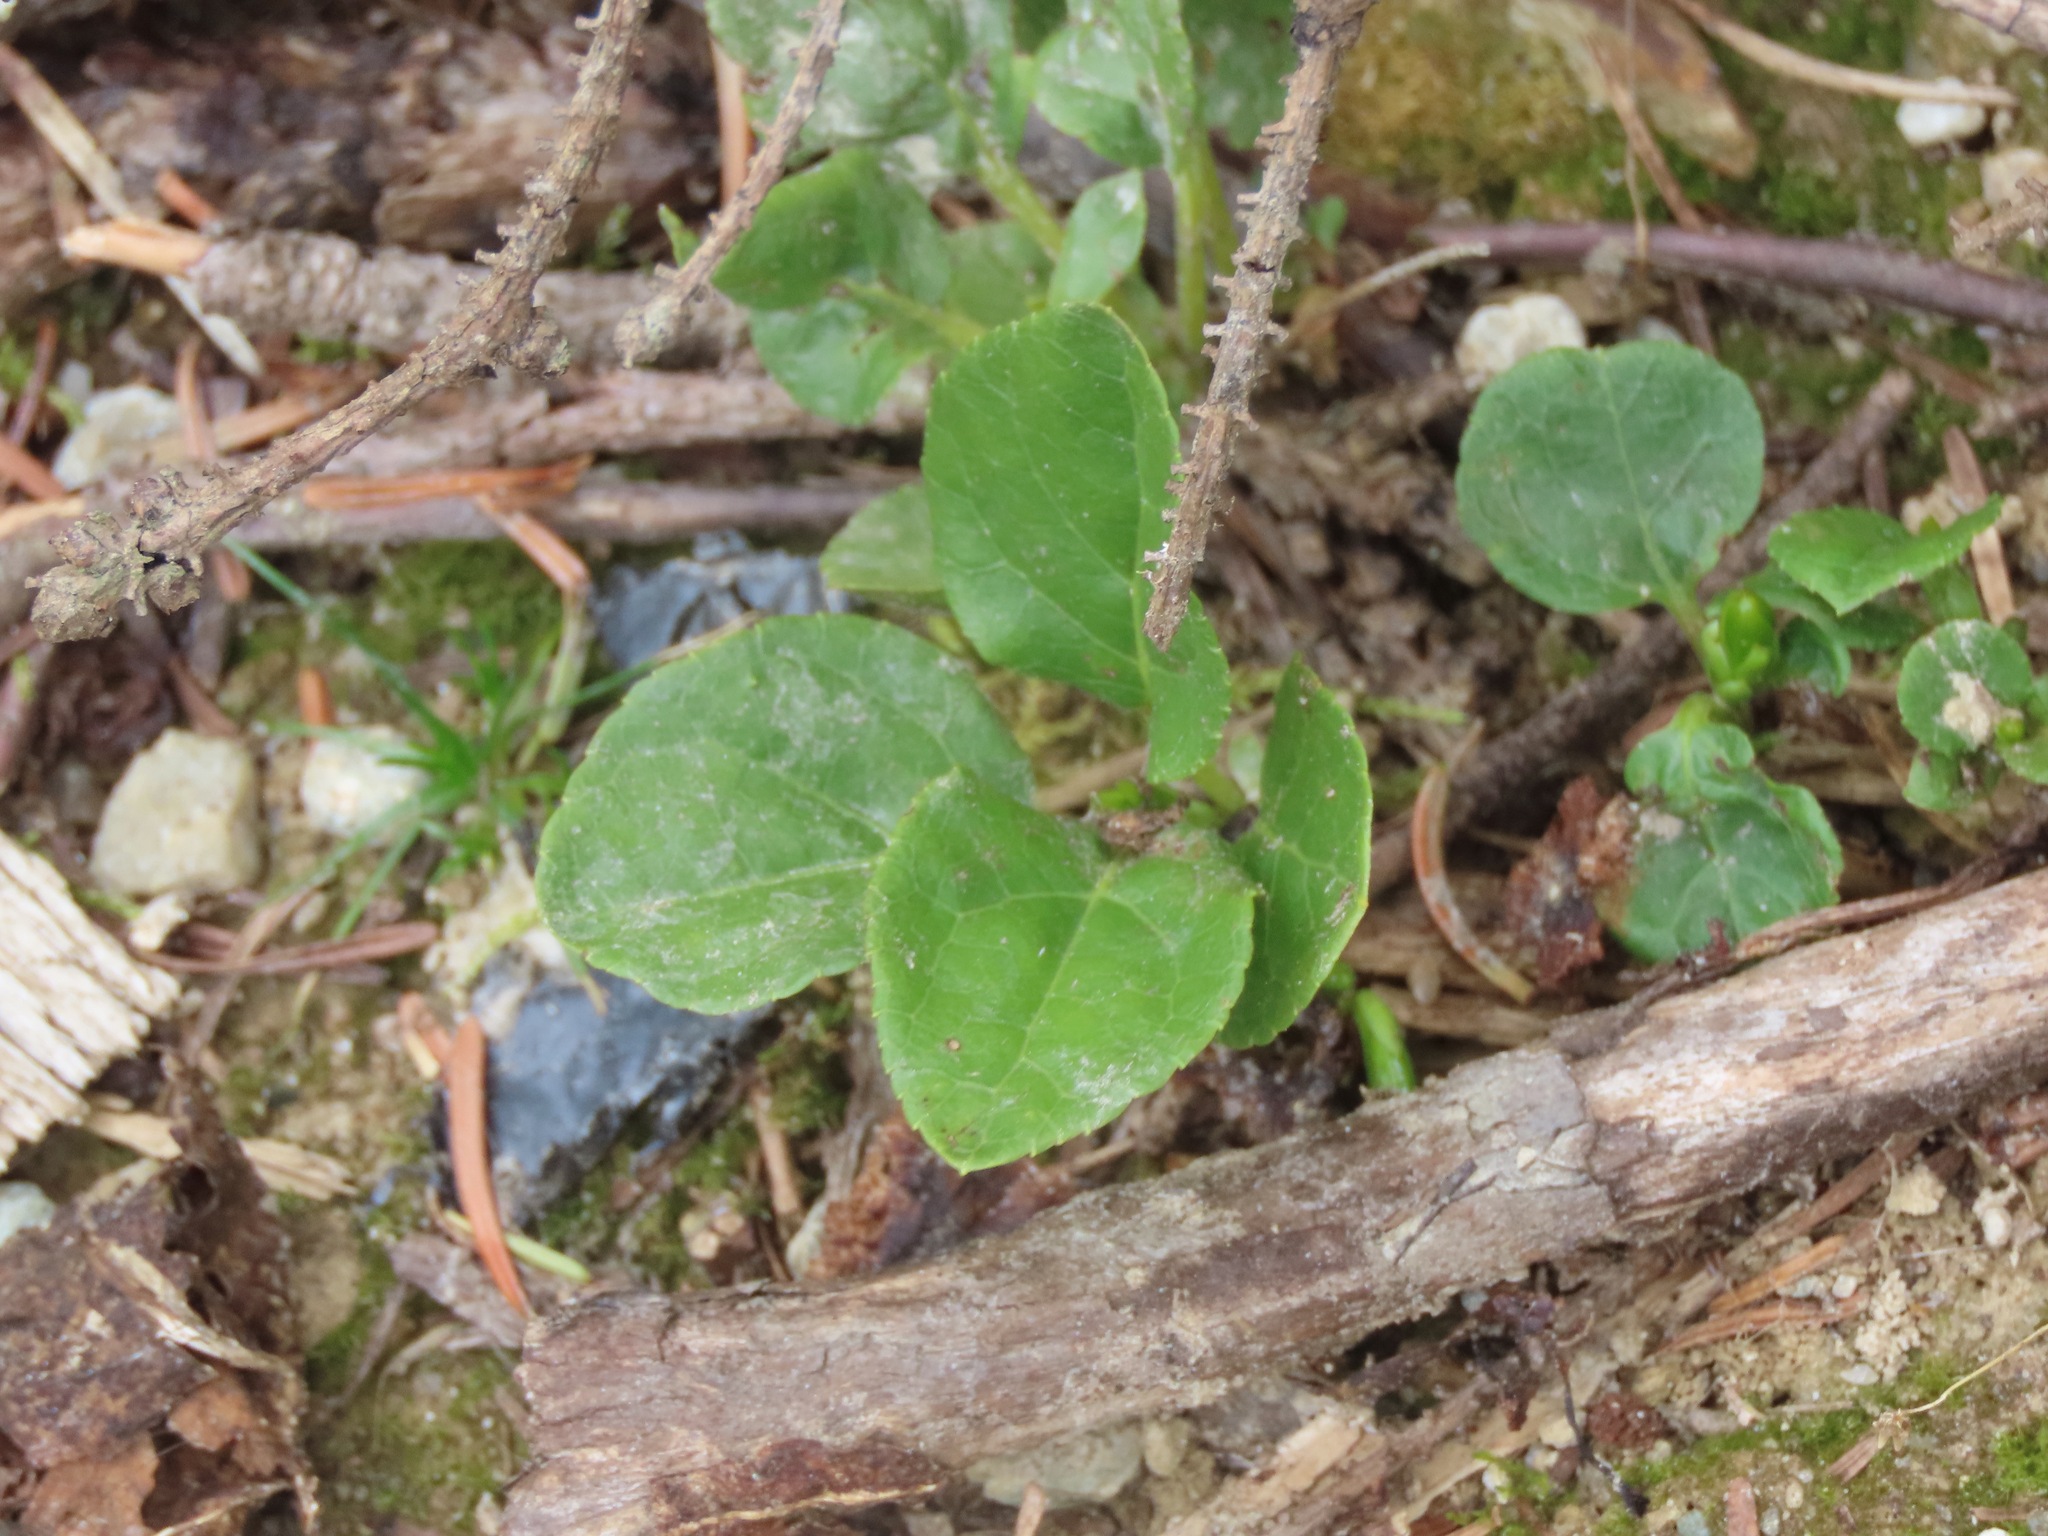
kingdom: Plantae
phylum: Tracheophyta
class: Magnoliopsida
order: Ericales
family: Ericaceae
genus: Orthilia
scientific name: Orthilia secunda
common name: One-sided orthilia
